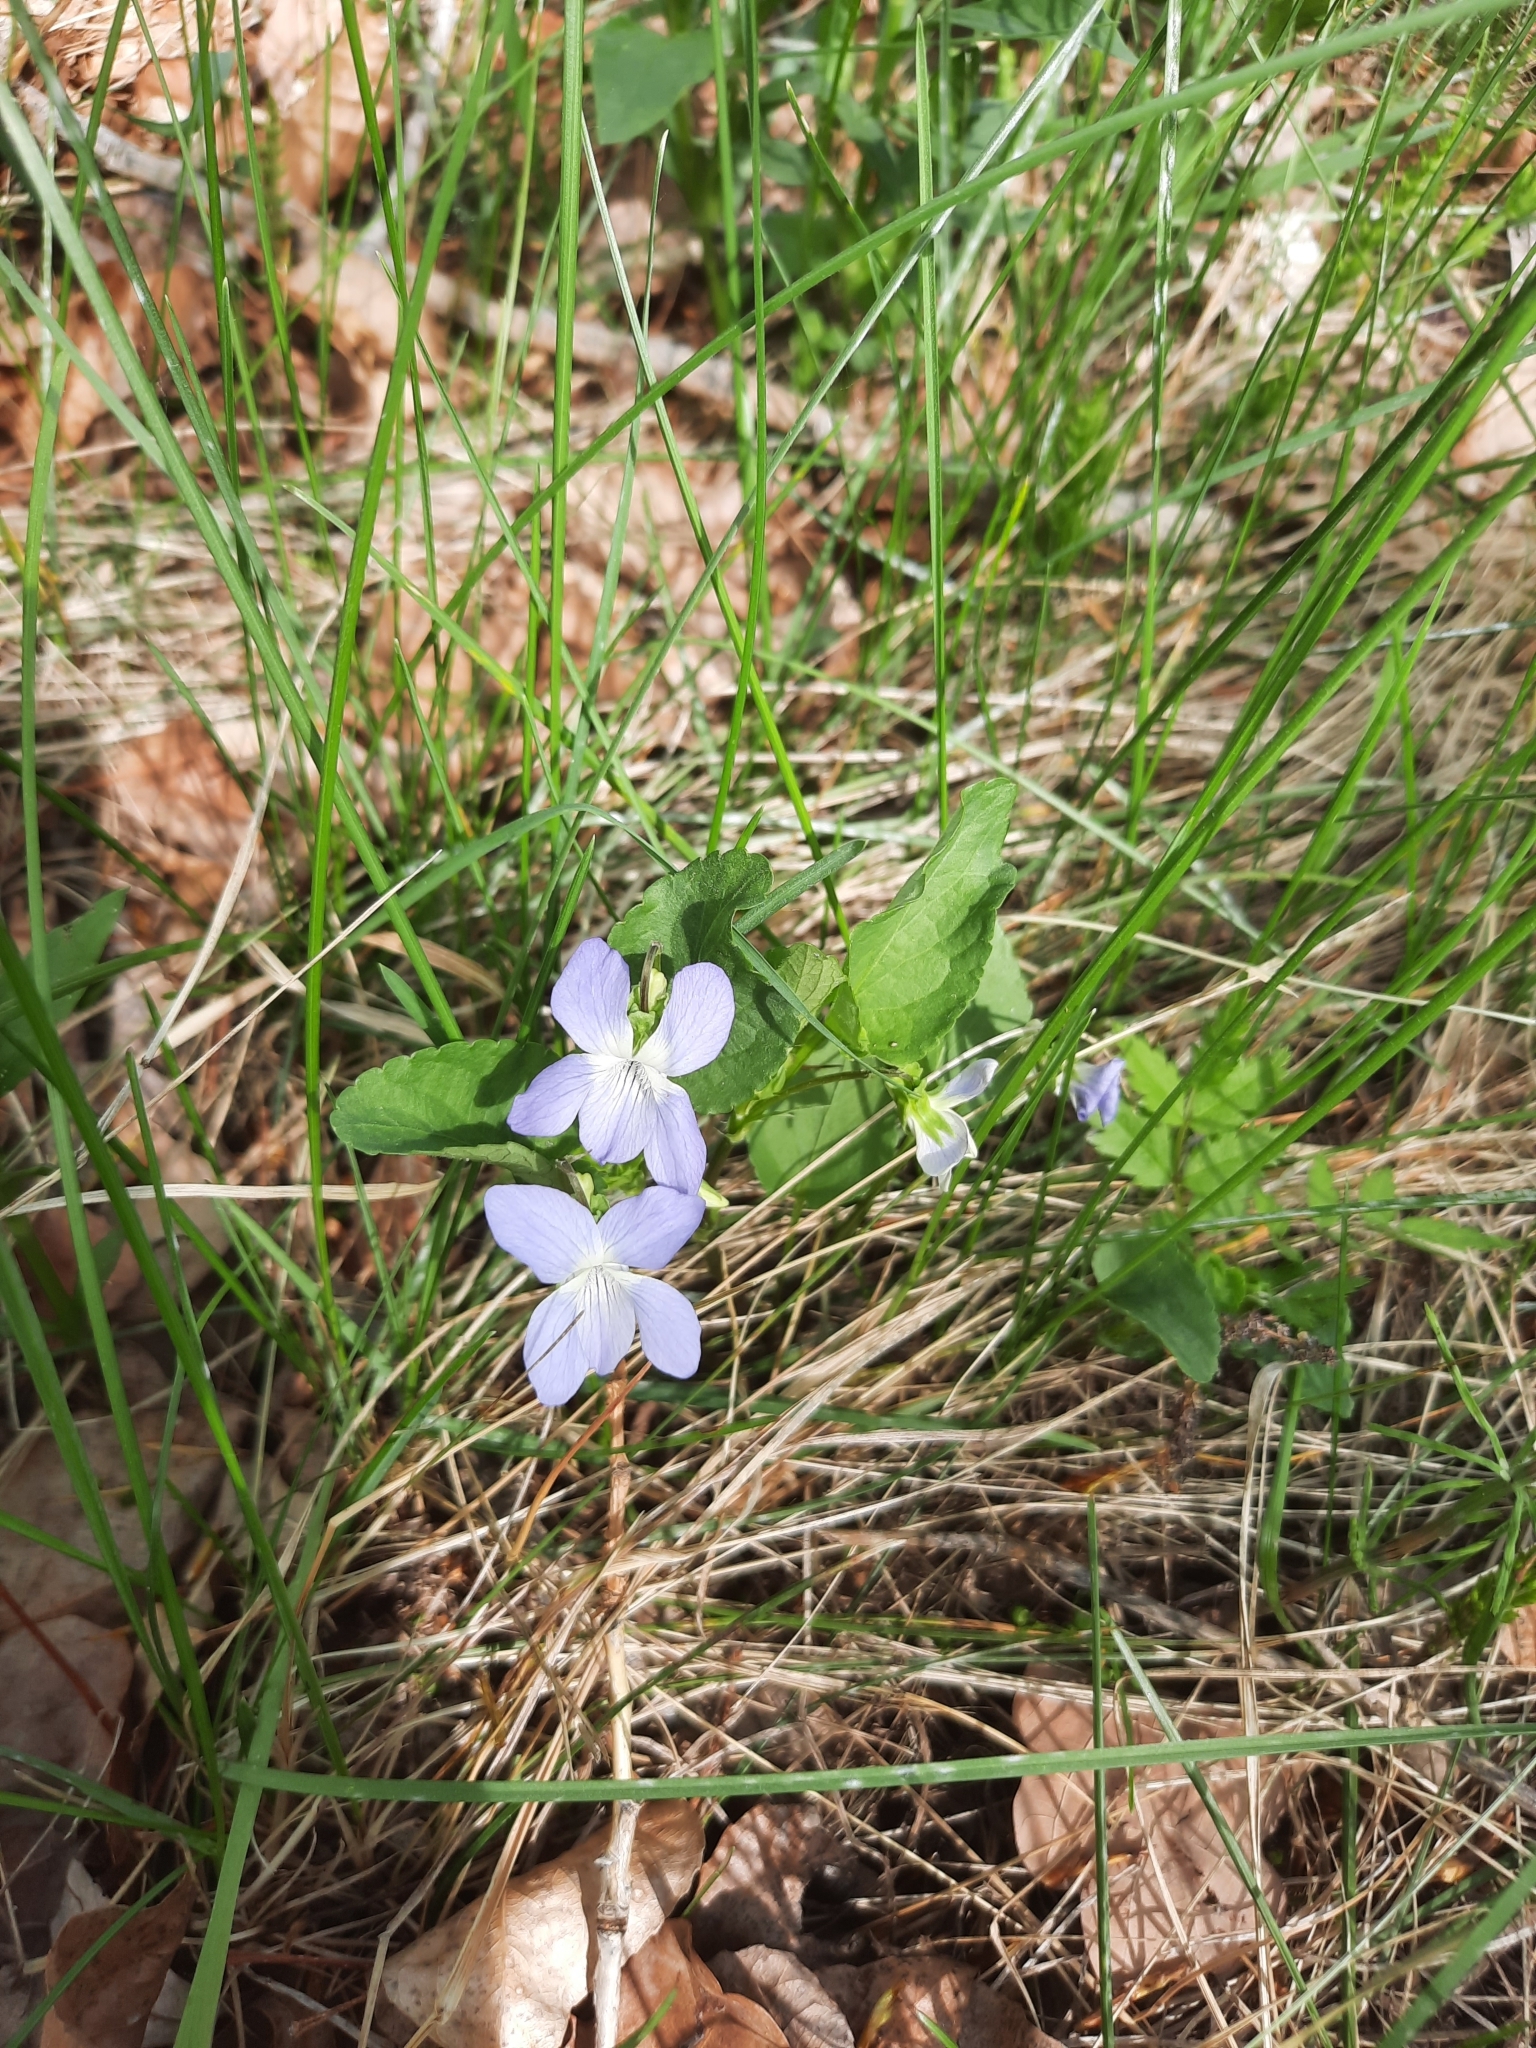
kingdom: Plantae
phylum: Tracheophyta
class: Magnoliopsida
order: Malpighiales
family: Violaceae
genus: Viola
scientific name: Viola
